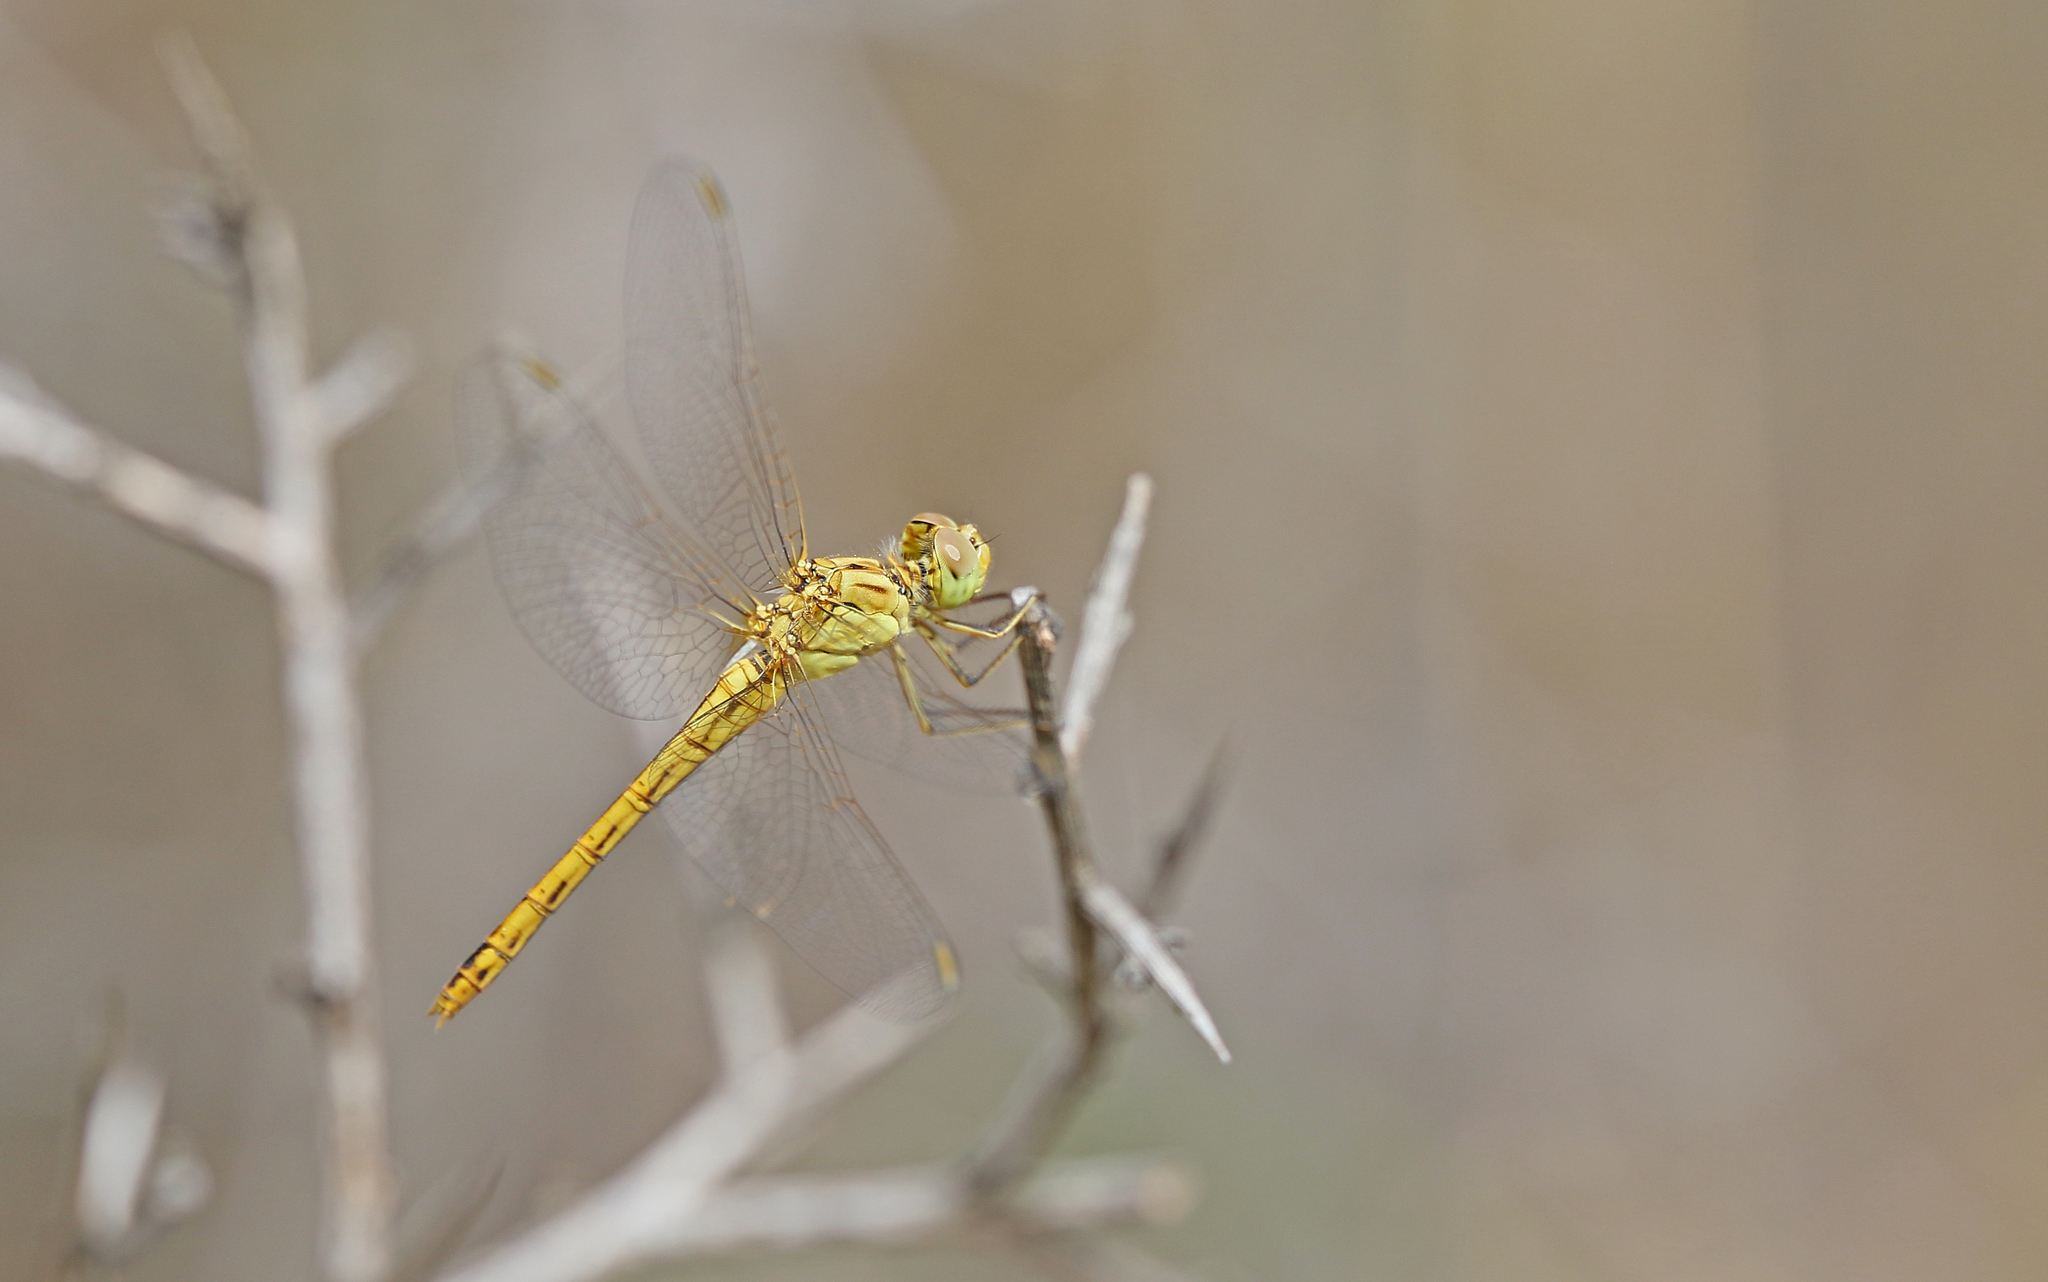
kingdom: Animalia
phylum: Arthropoda
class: Insecta
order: Odonata
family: Libellulidae
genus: Sympetrum
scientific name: Sympetrum meridionale
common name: Southern darter
